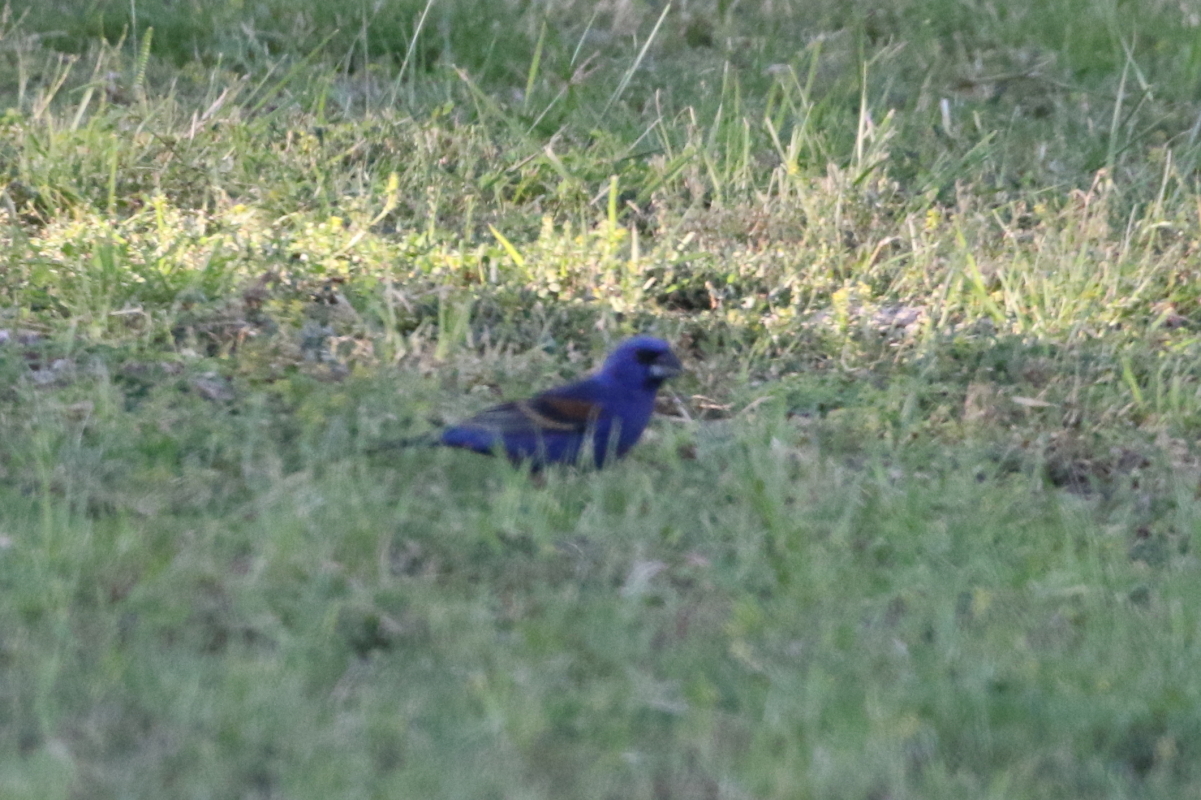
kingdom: Animalia
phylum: Chordata
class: Aves
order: Passeriformes
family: Cardinalidae
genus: Passerina
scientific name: Passerina caerulea
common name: Blue grosbeak
